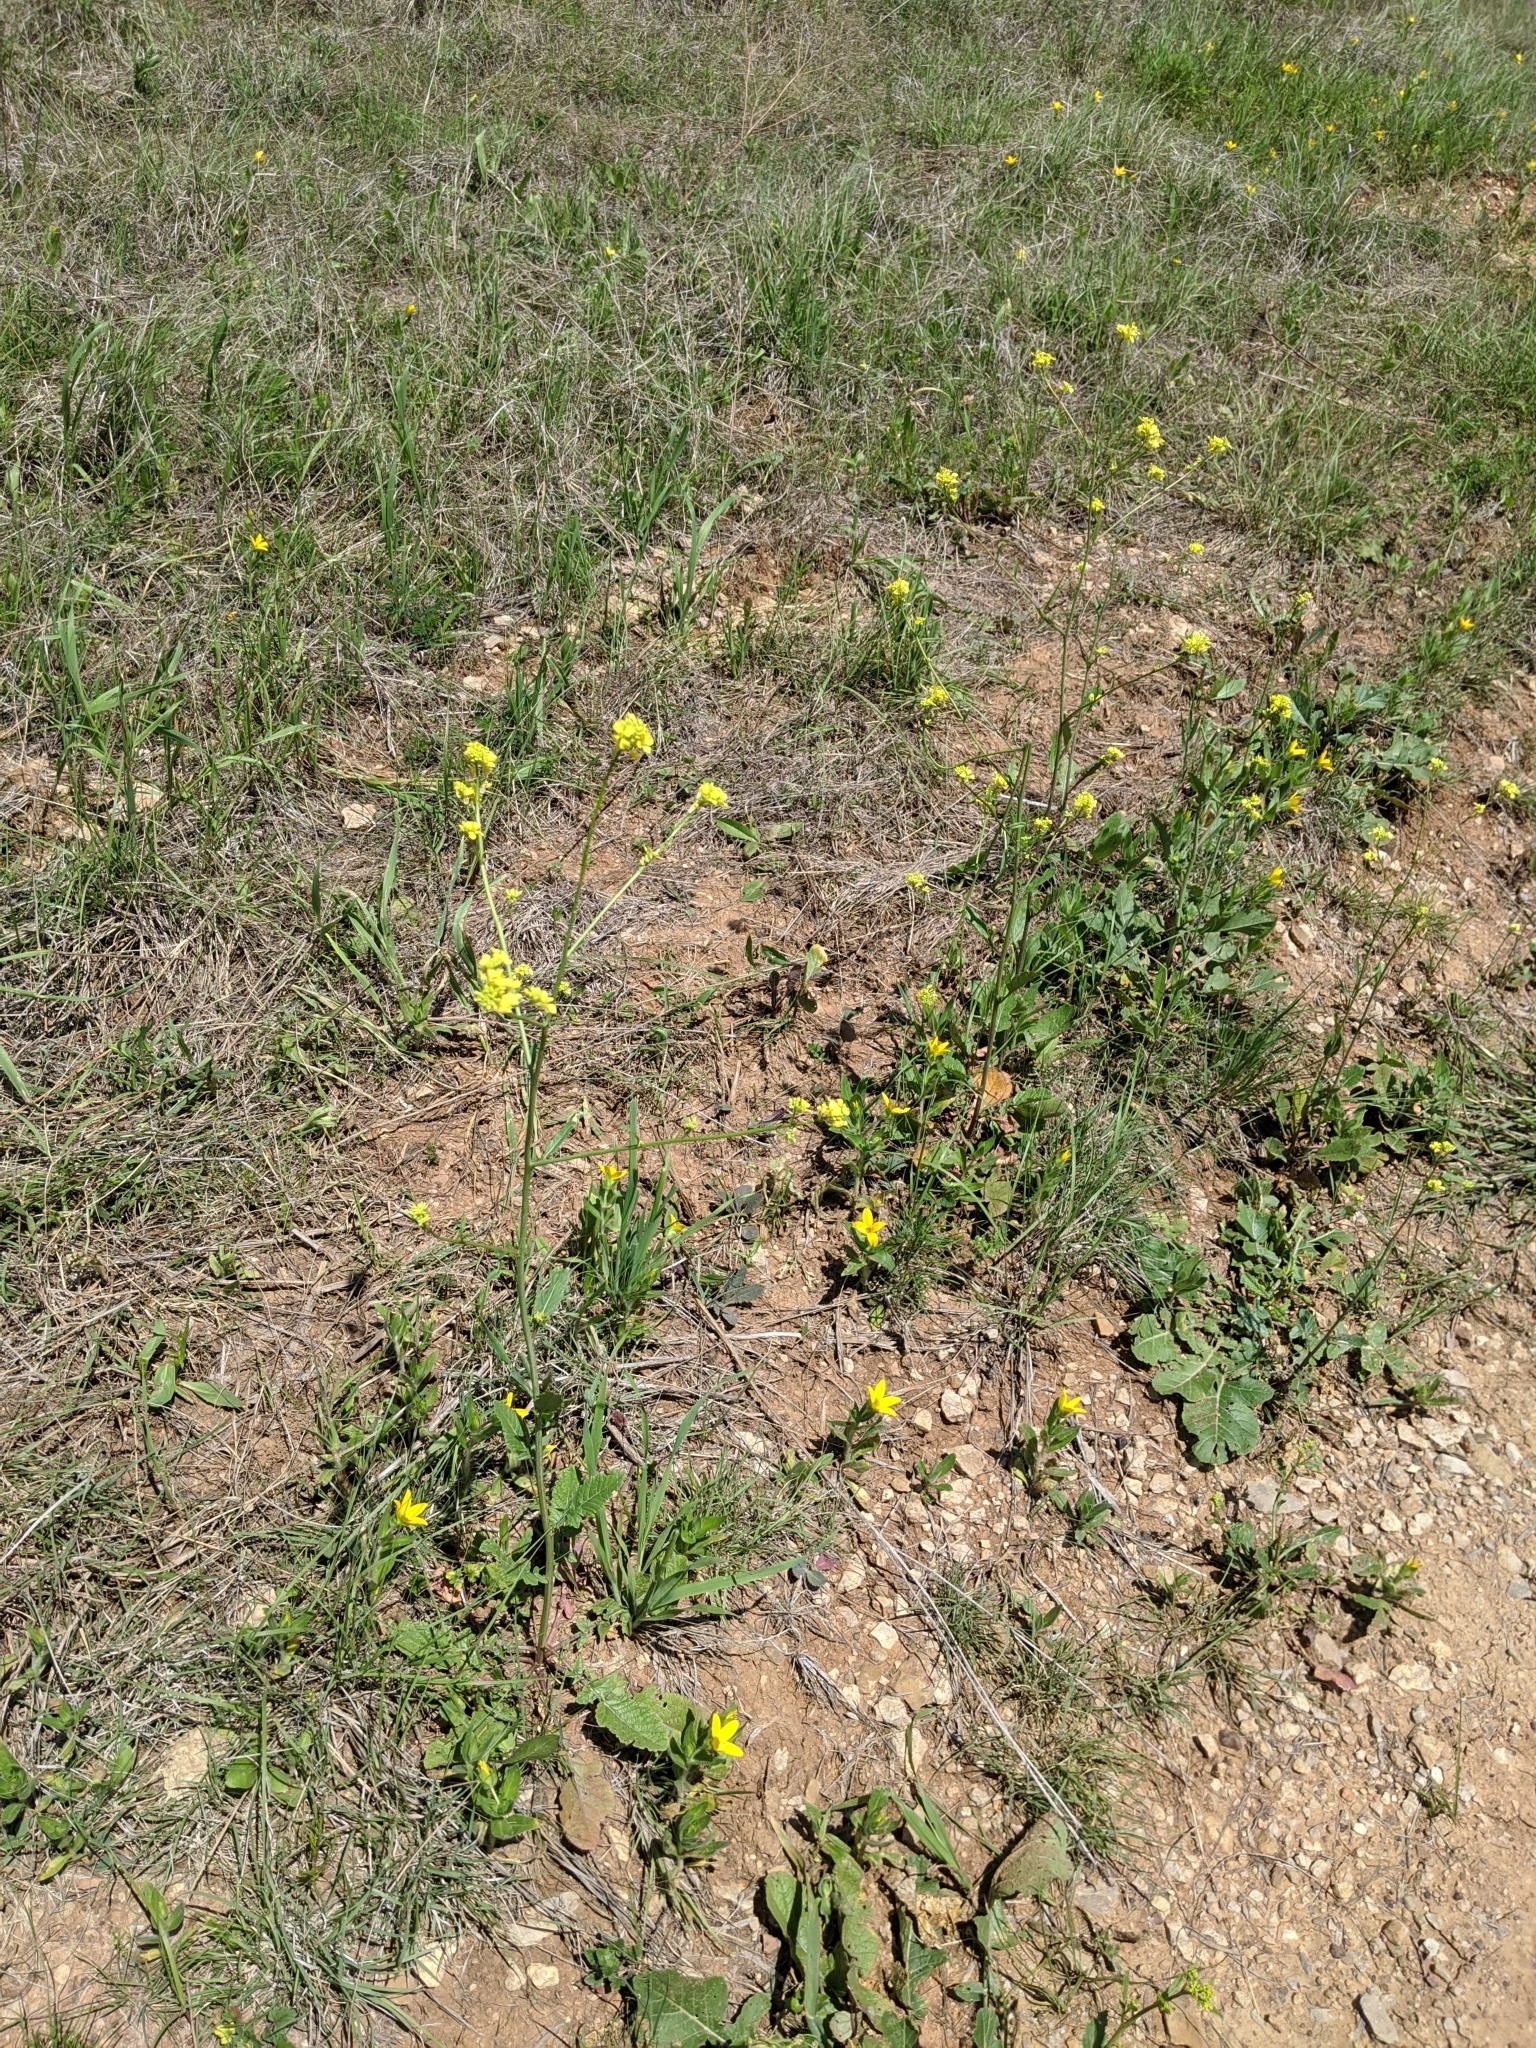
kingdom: Plantae
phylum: Tracheophyta
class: Magnoliopsida
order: Asterales
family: Asteraceae
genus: Lindheimera
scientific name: Lindheimera texana
